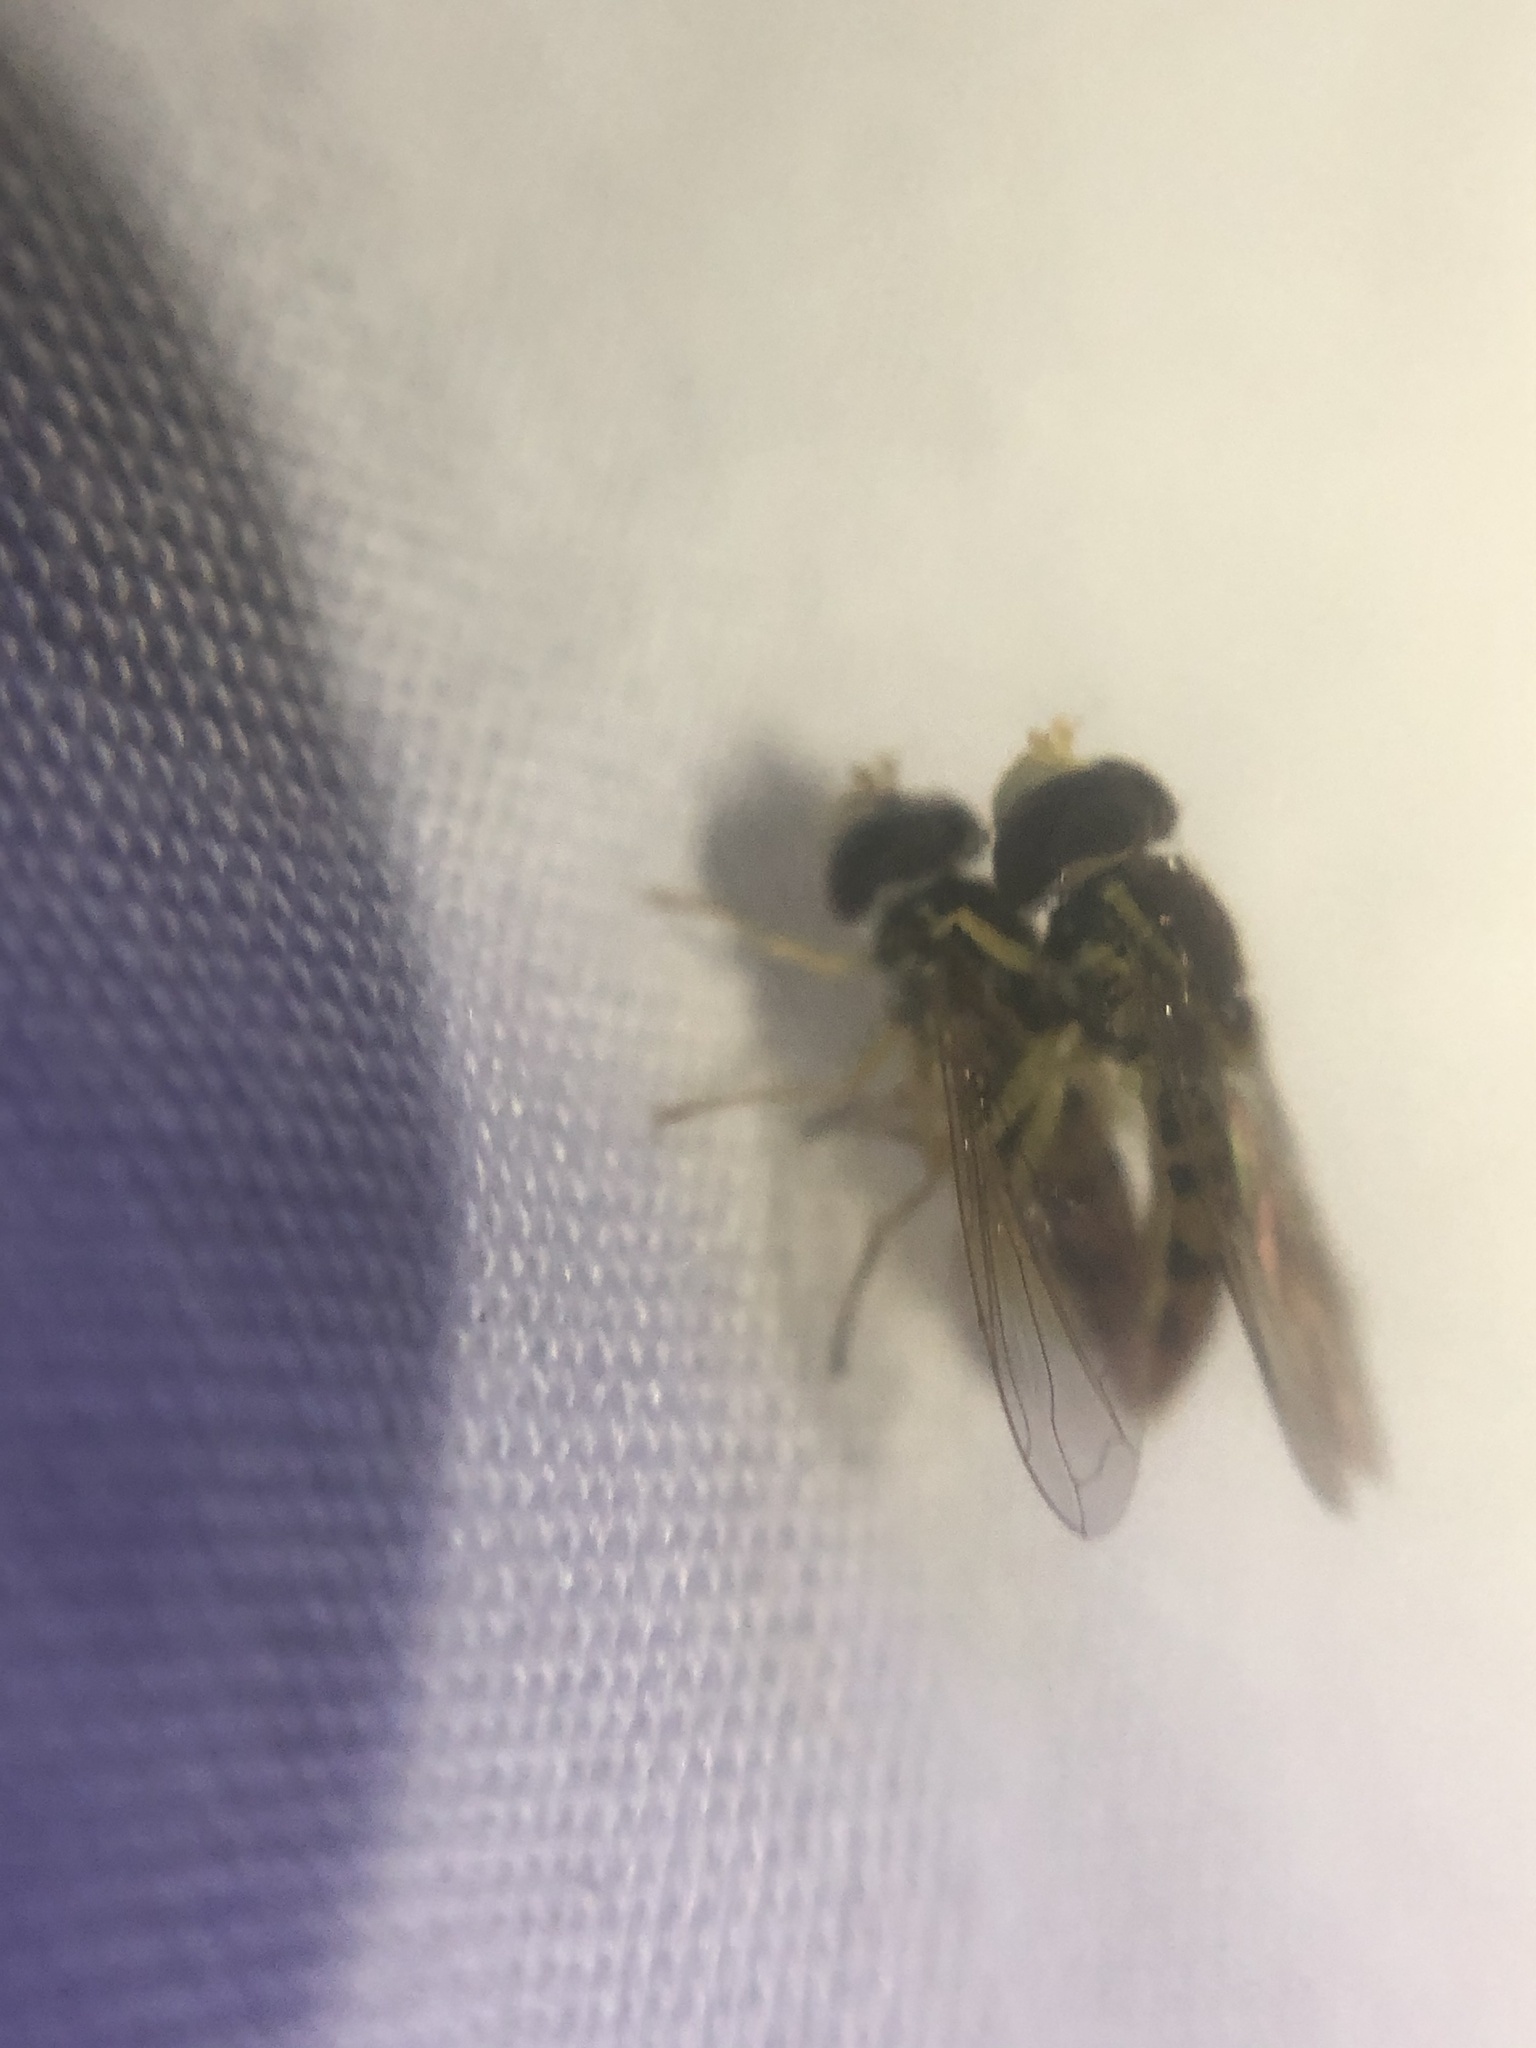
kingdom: Animalia
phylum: Arthropoda
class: Insecta
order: Diptera
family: Syrphidae
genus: Toxomerus
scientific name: Toxomerus marginatus
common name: Syrphid fly
